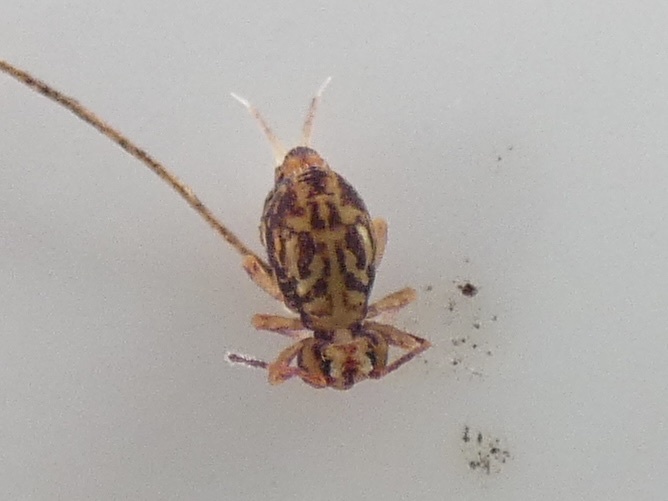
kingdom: Animalia
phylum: Arthropoda
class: Collembola
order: Symphypleona
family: Dicyrtomidae
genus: Dicyrtomina
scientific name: Dicyrtomina saundersi
